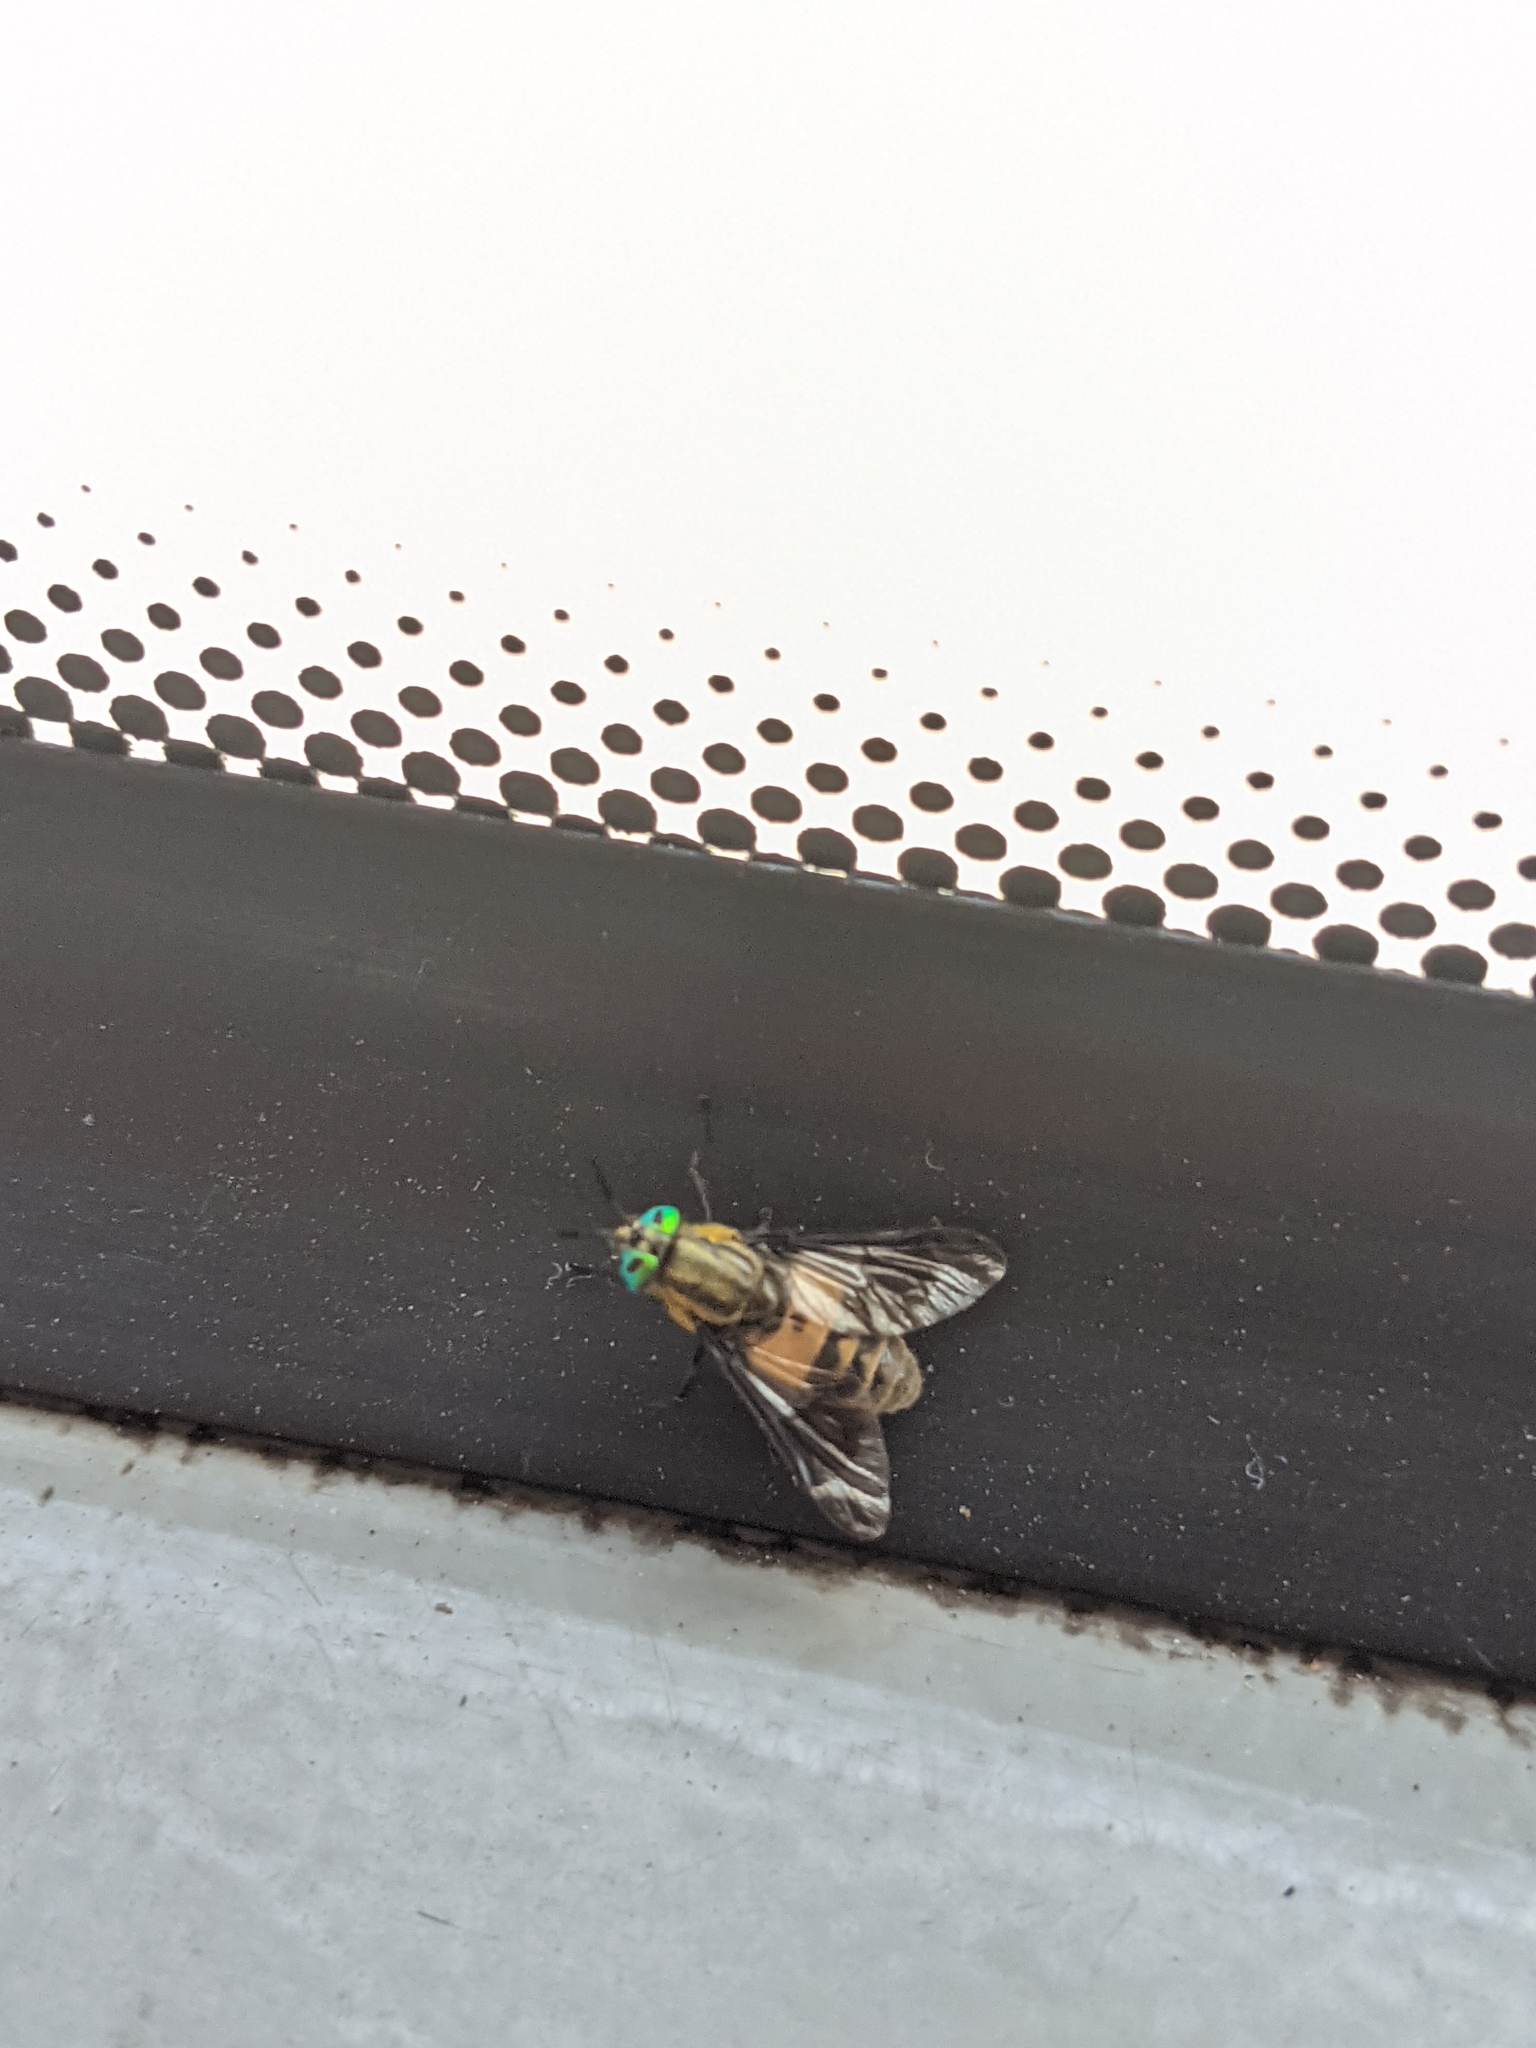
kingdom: Animalia
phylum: Arthropoda
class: Insecta
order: Diptera
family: Tabanidae
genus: Chrysops
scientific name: Chrysops viduatus
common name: Square-spot deerfly
